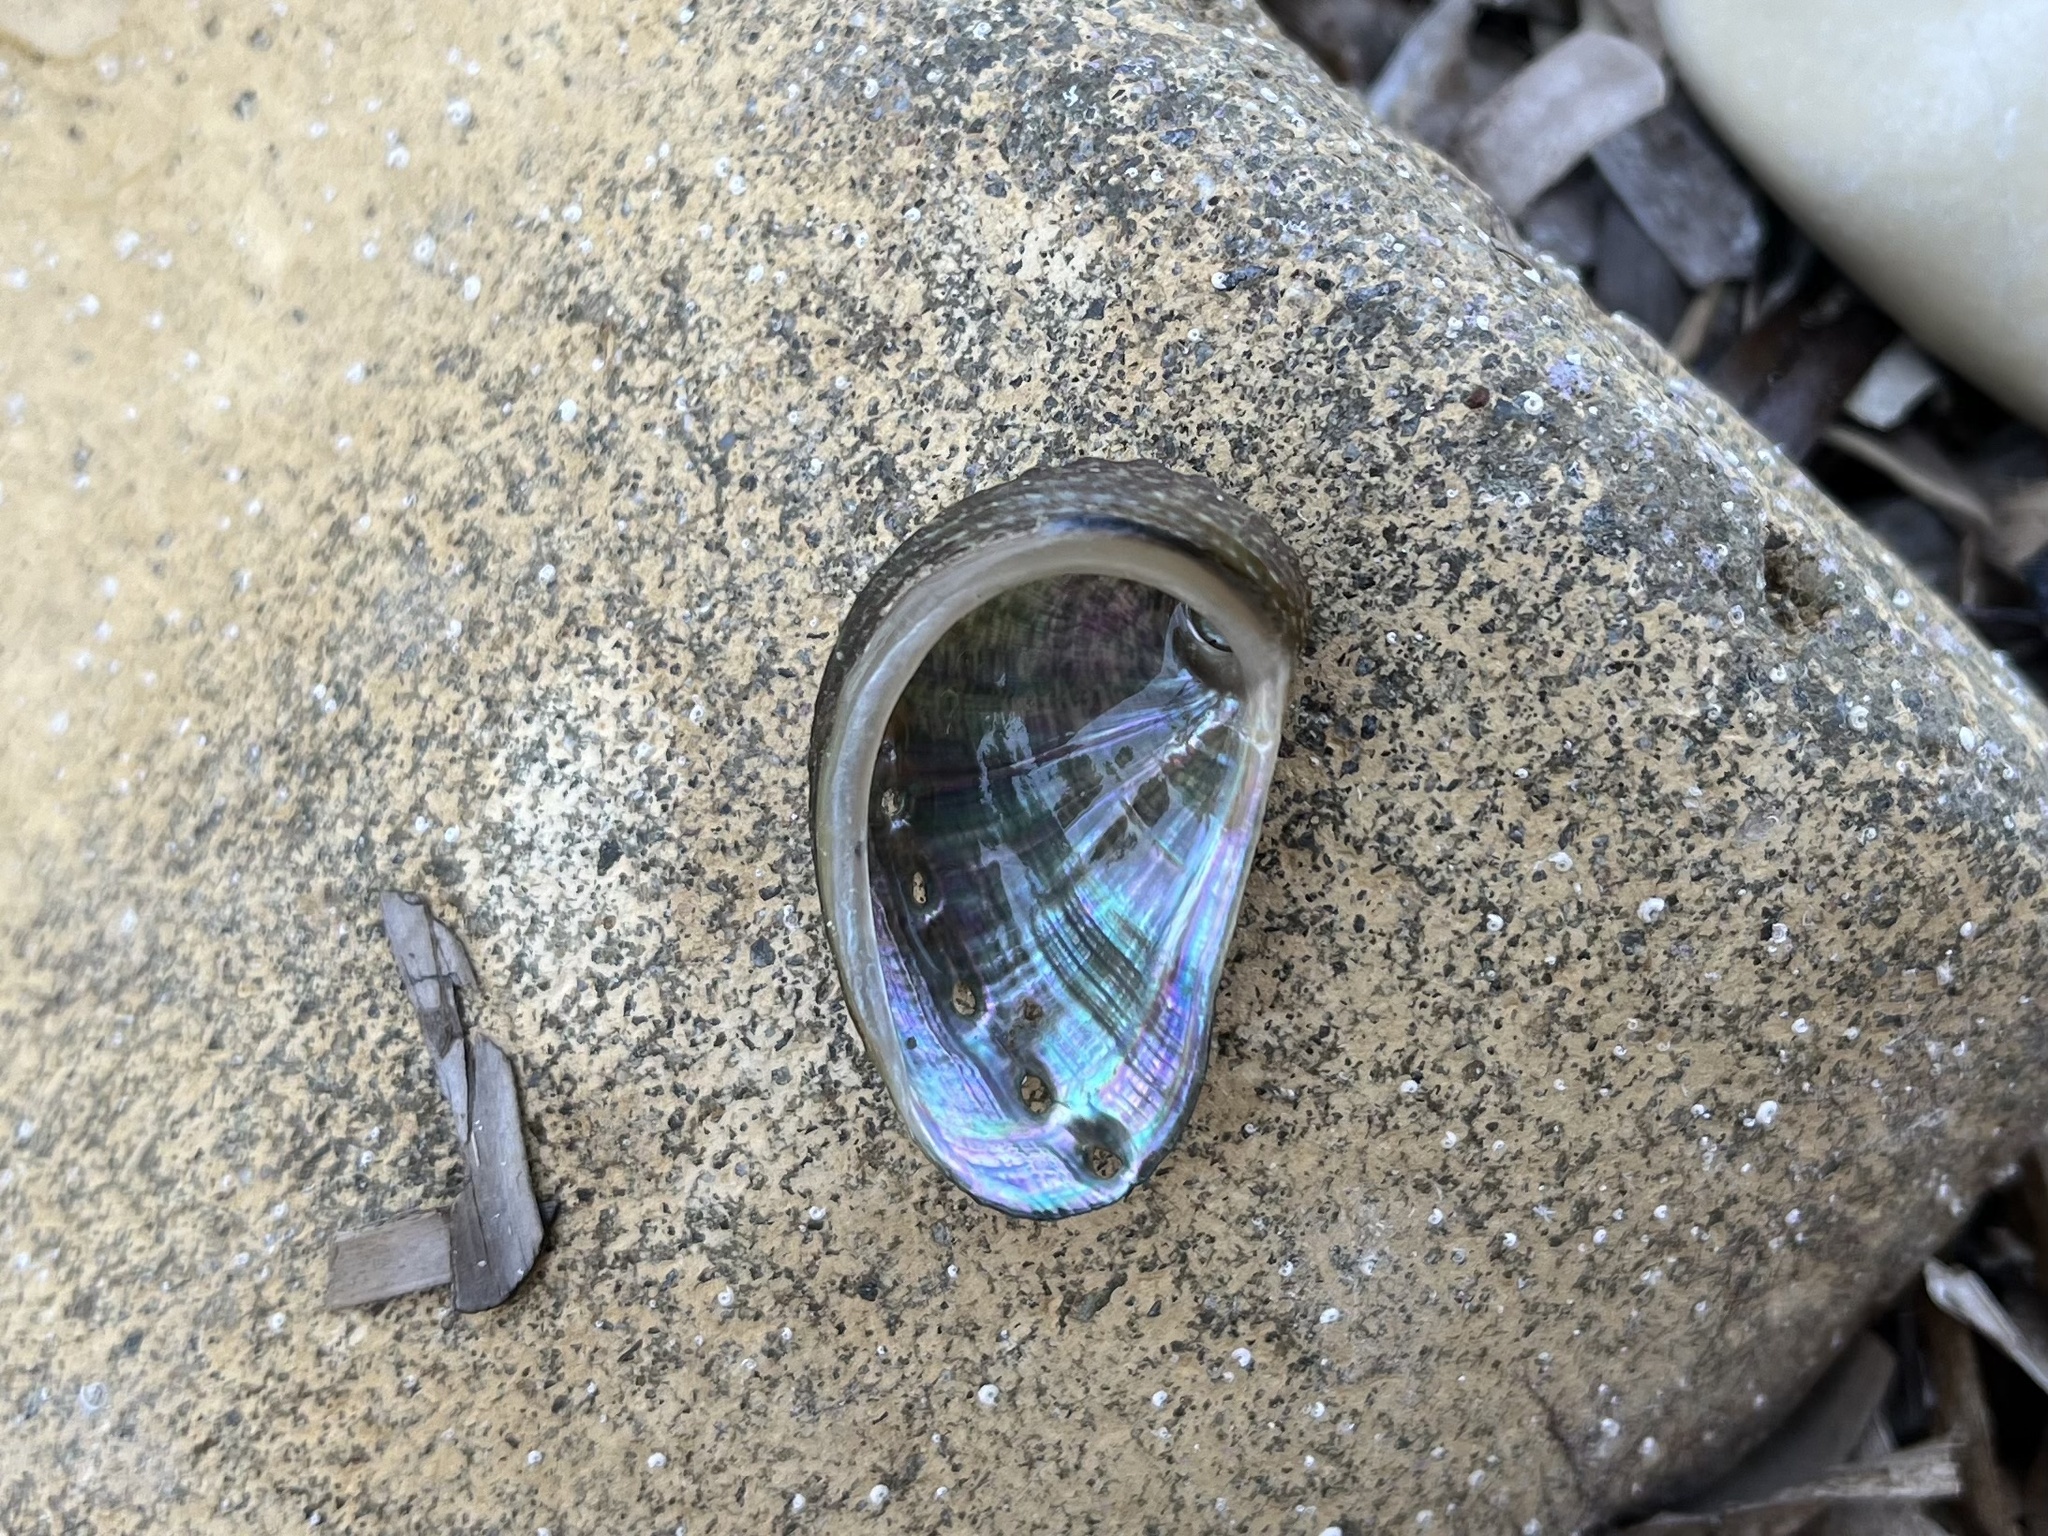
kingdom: Animalia
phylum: Mollusca
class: Gastropoda
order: Lepetellida
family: Haliotidae
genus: Haliotis
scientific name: Haliotis tuberculata
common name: Green ormer
